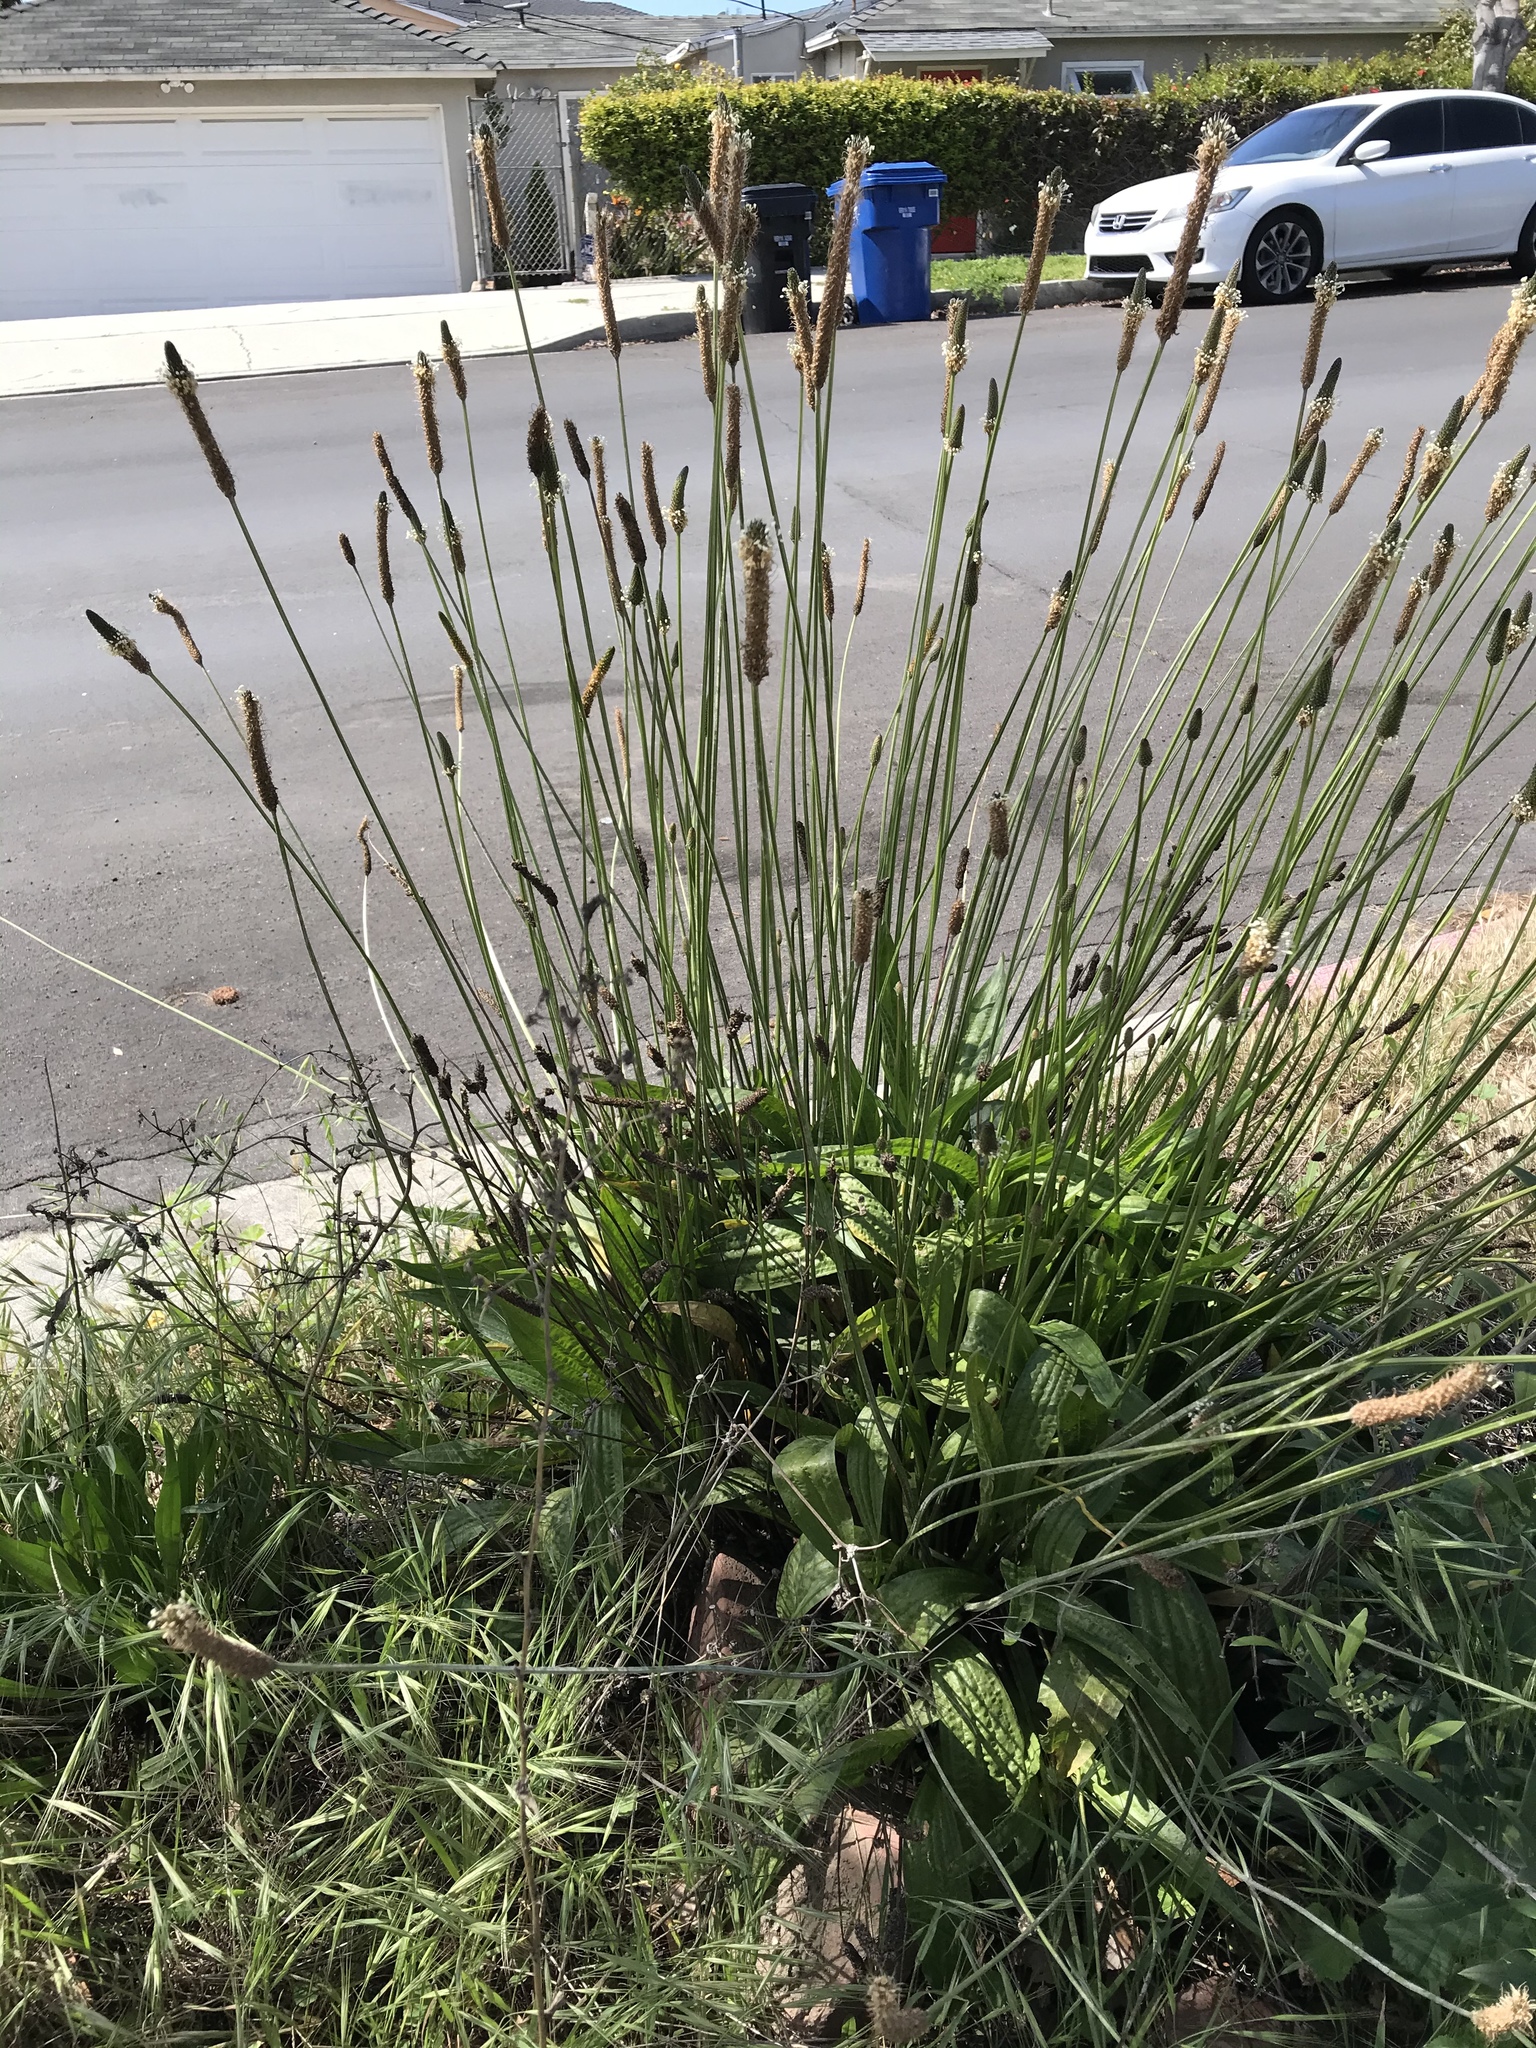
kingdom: Plantae
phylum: Tracheophyta
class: Magnoliopsida
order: Lamiales
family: Plantaginaceae
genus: Plantago
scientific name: Plantago lanceolata
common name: Ribwort plantain
